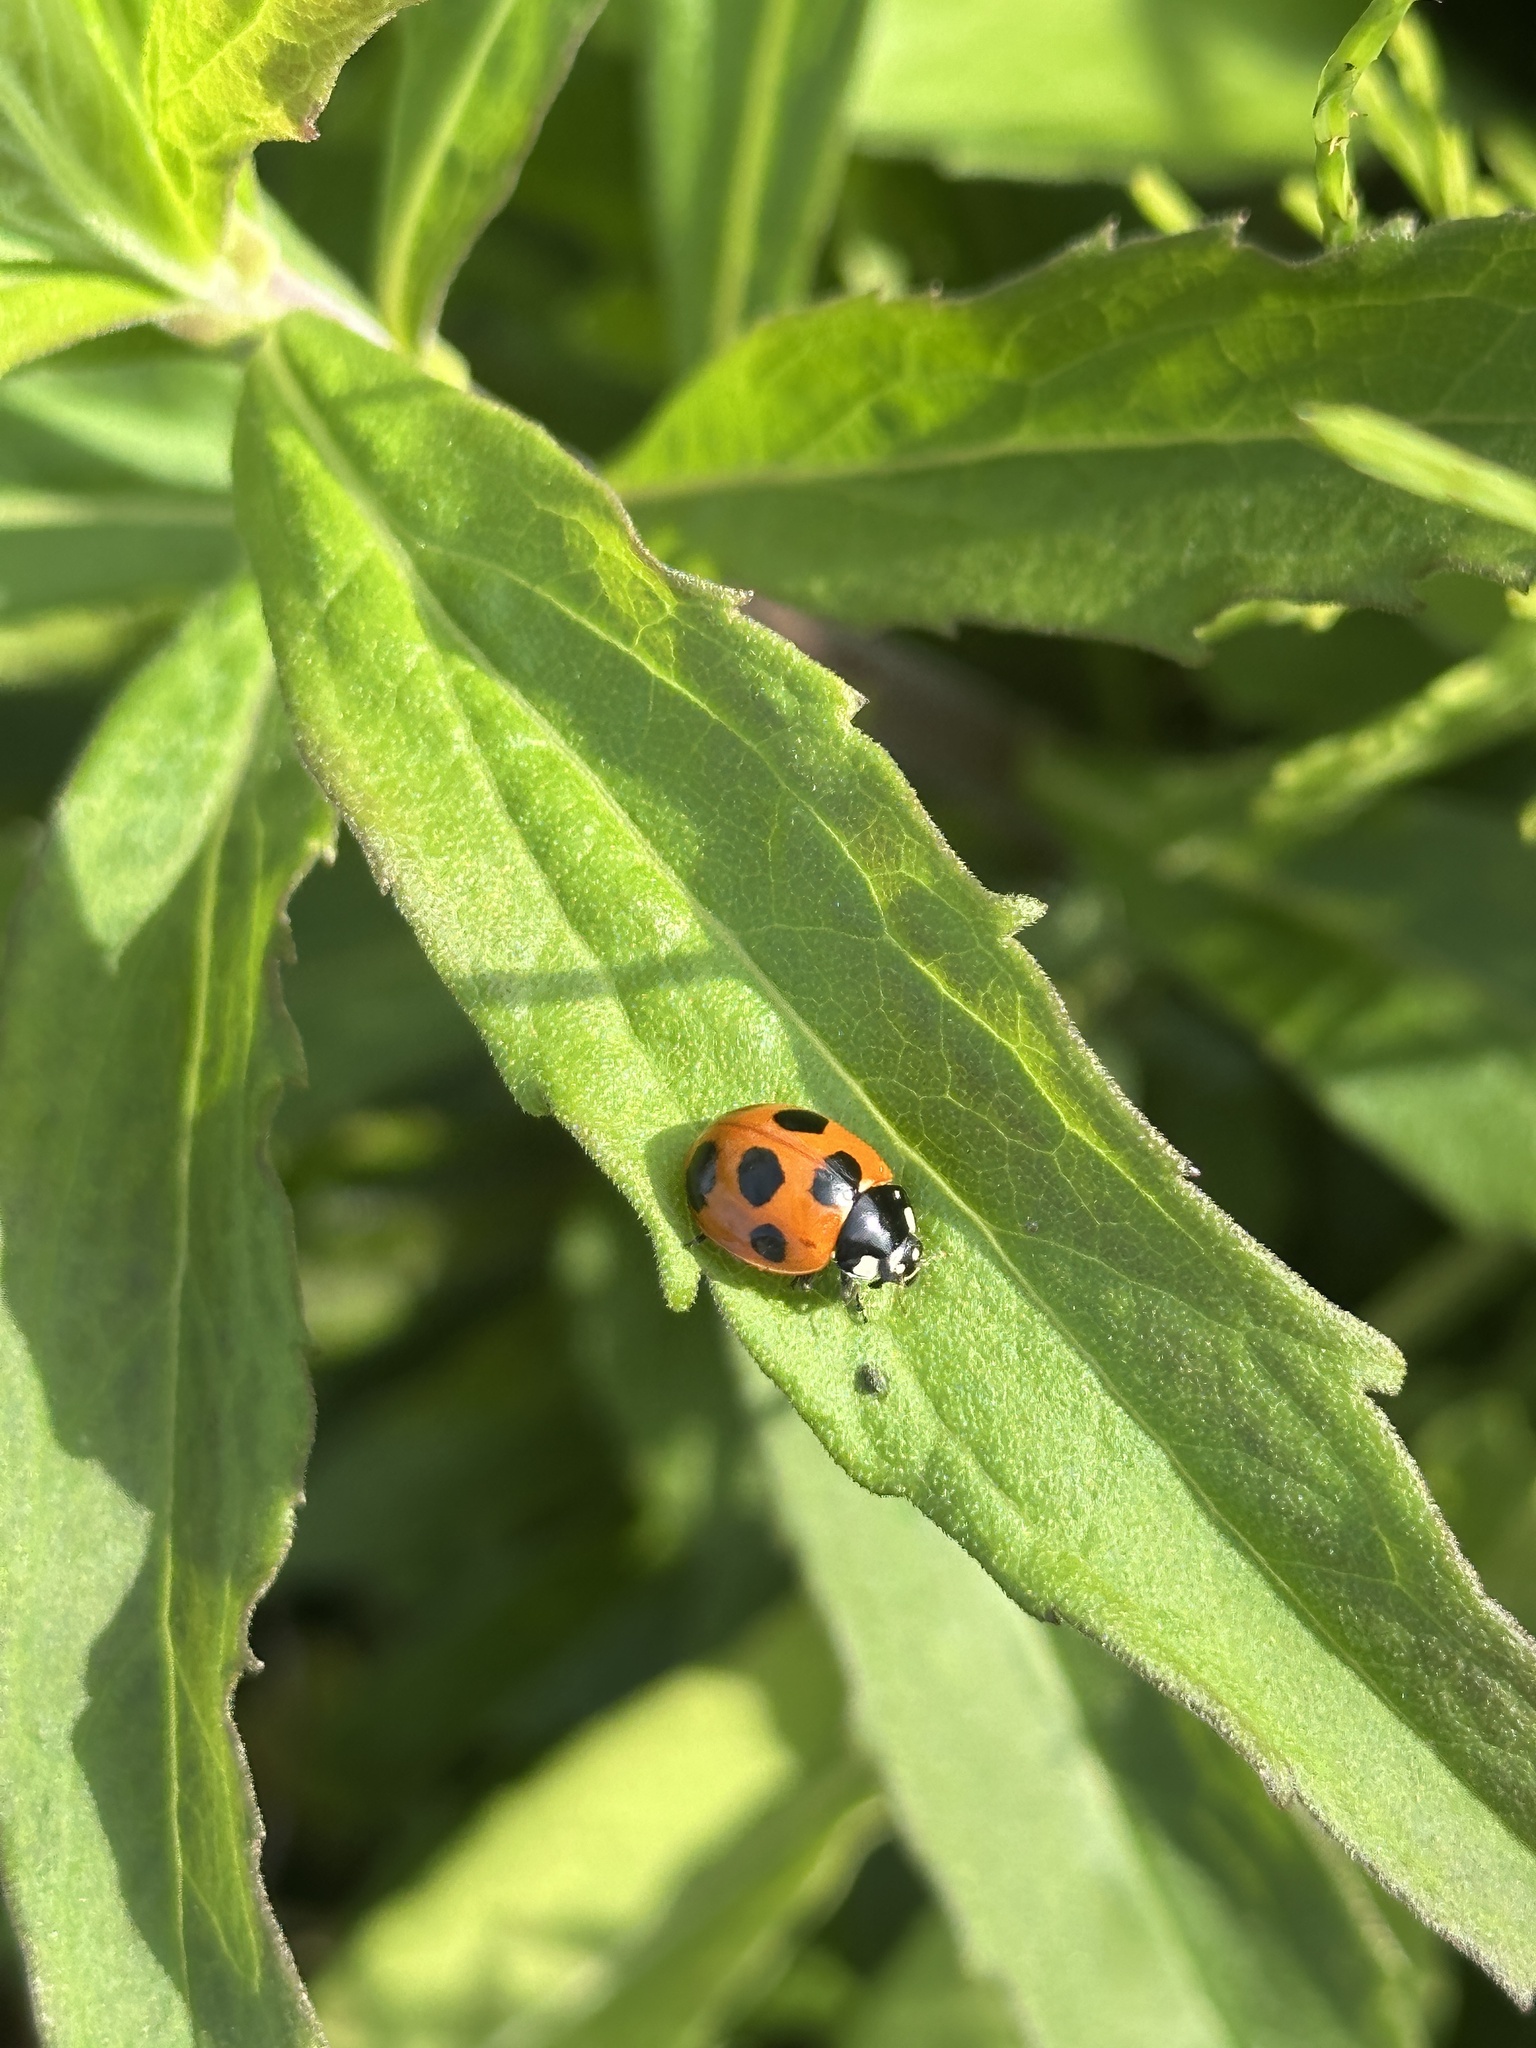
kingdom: Animalia
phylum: Arthropoda
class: Insecta
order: Coleoptera
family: Coccinellidae
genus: Coccinella
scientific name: Coccinella septempunctata
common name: Sevenspotted lady beetle
